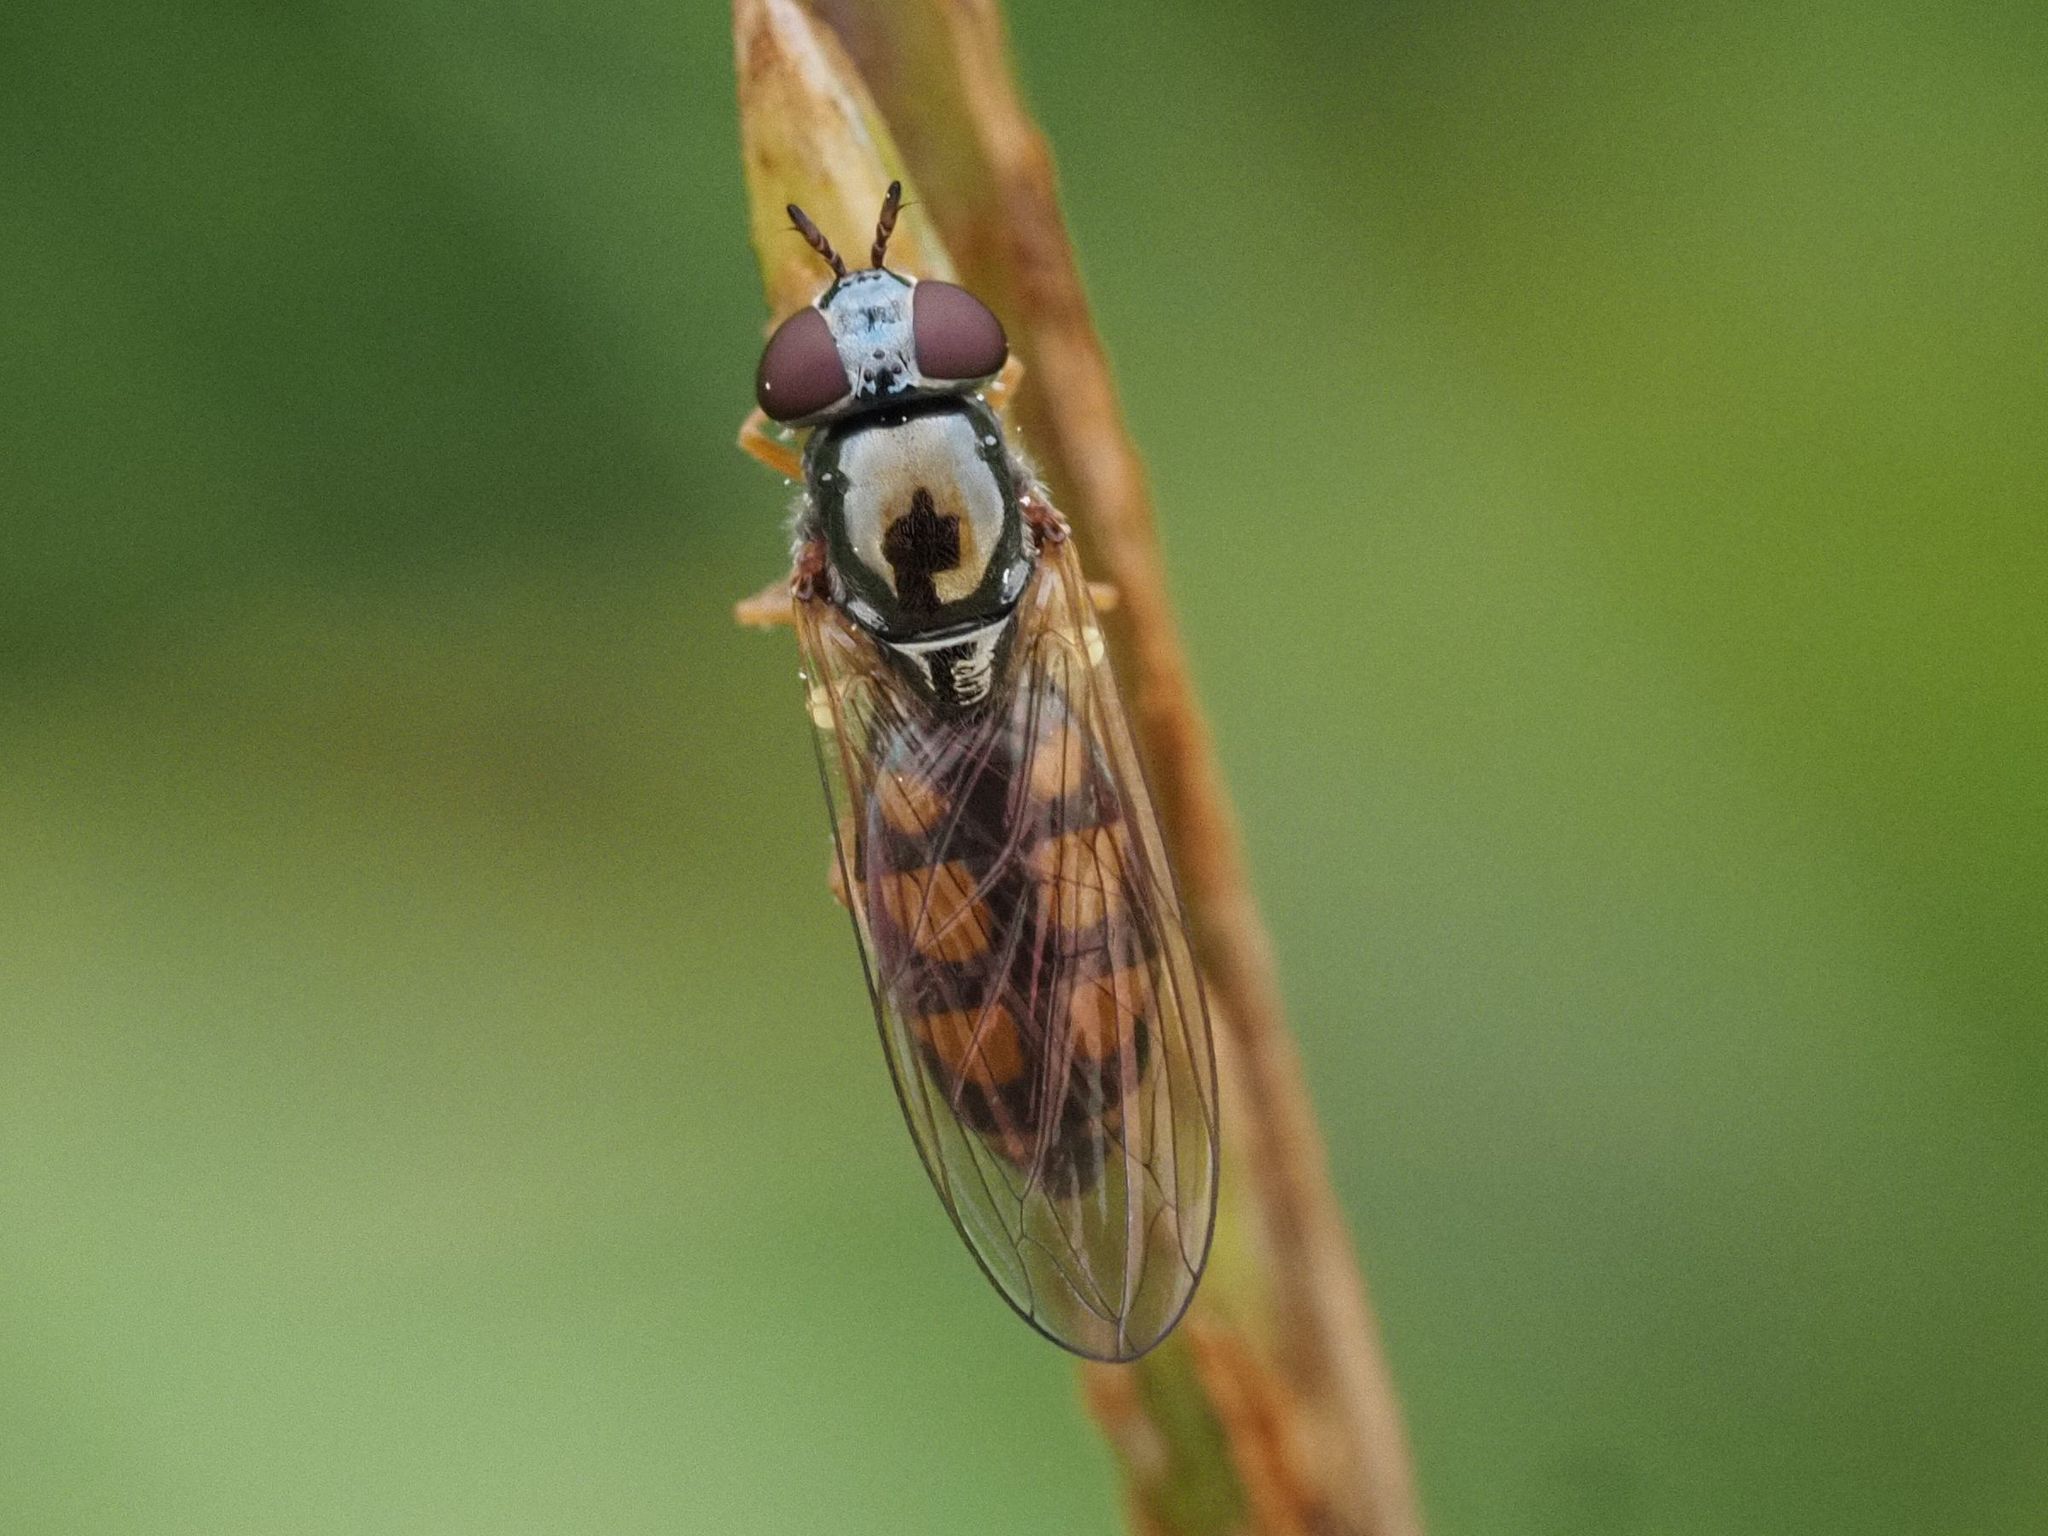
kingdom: Animalia
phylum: Arthropoda
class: Insecta
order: Diptera
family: Syrphidae
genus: Melanostoma
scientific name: Melanostoma mellina
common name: Hover fly
